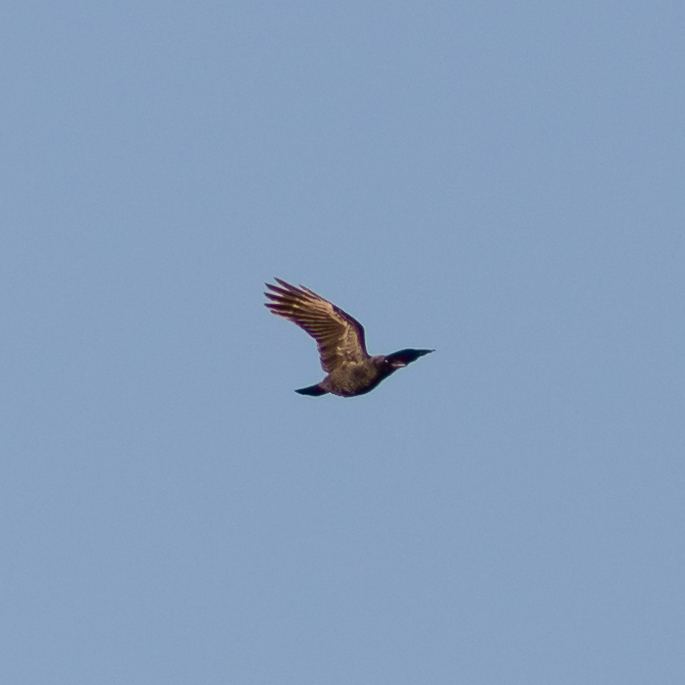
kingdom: Animalia
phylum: Chordata
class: Aves
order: Passeriformes
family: Corvidae
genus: Corvus
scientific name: Corvus corone
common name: Carrion crow
